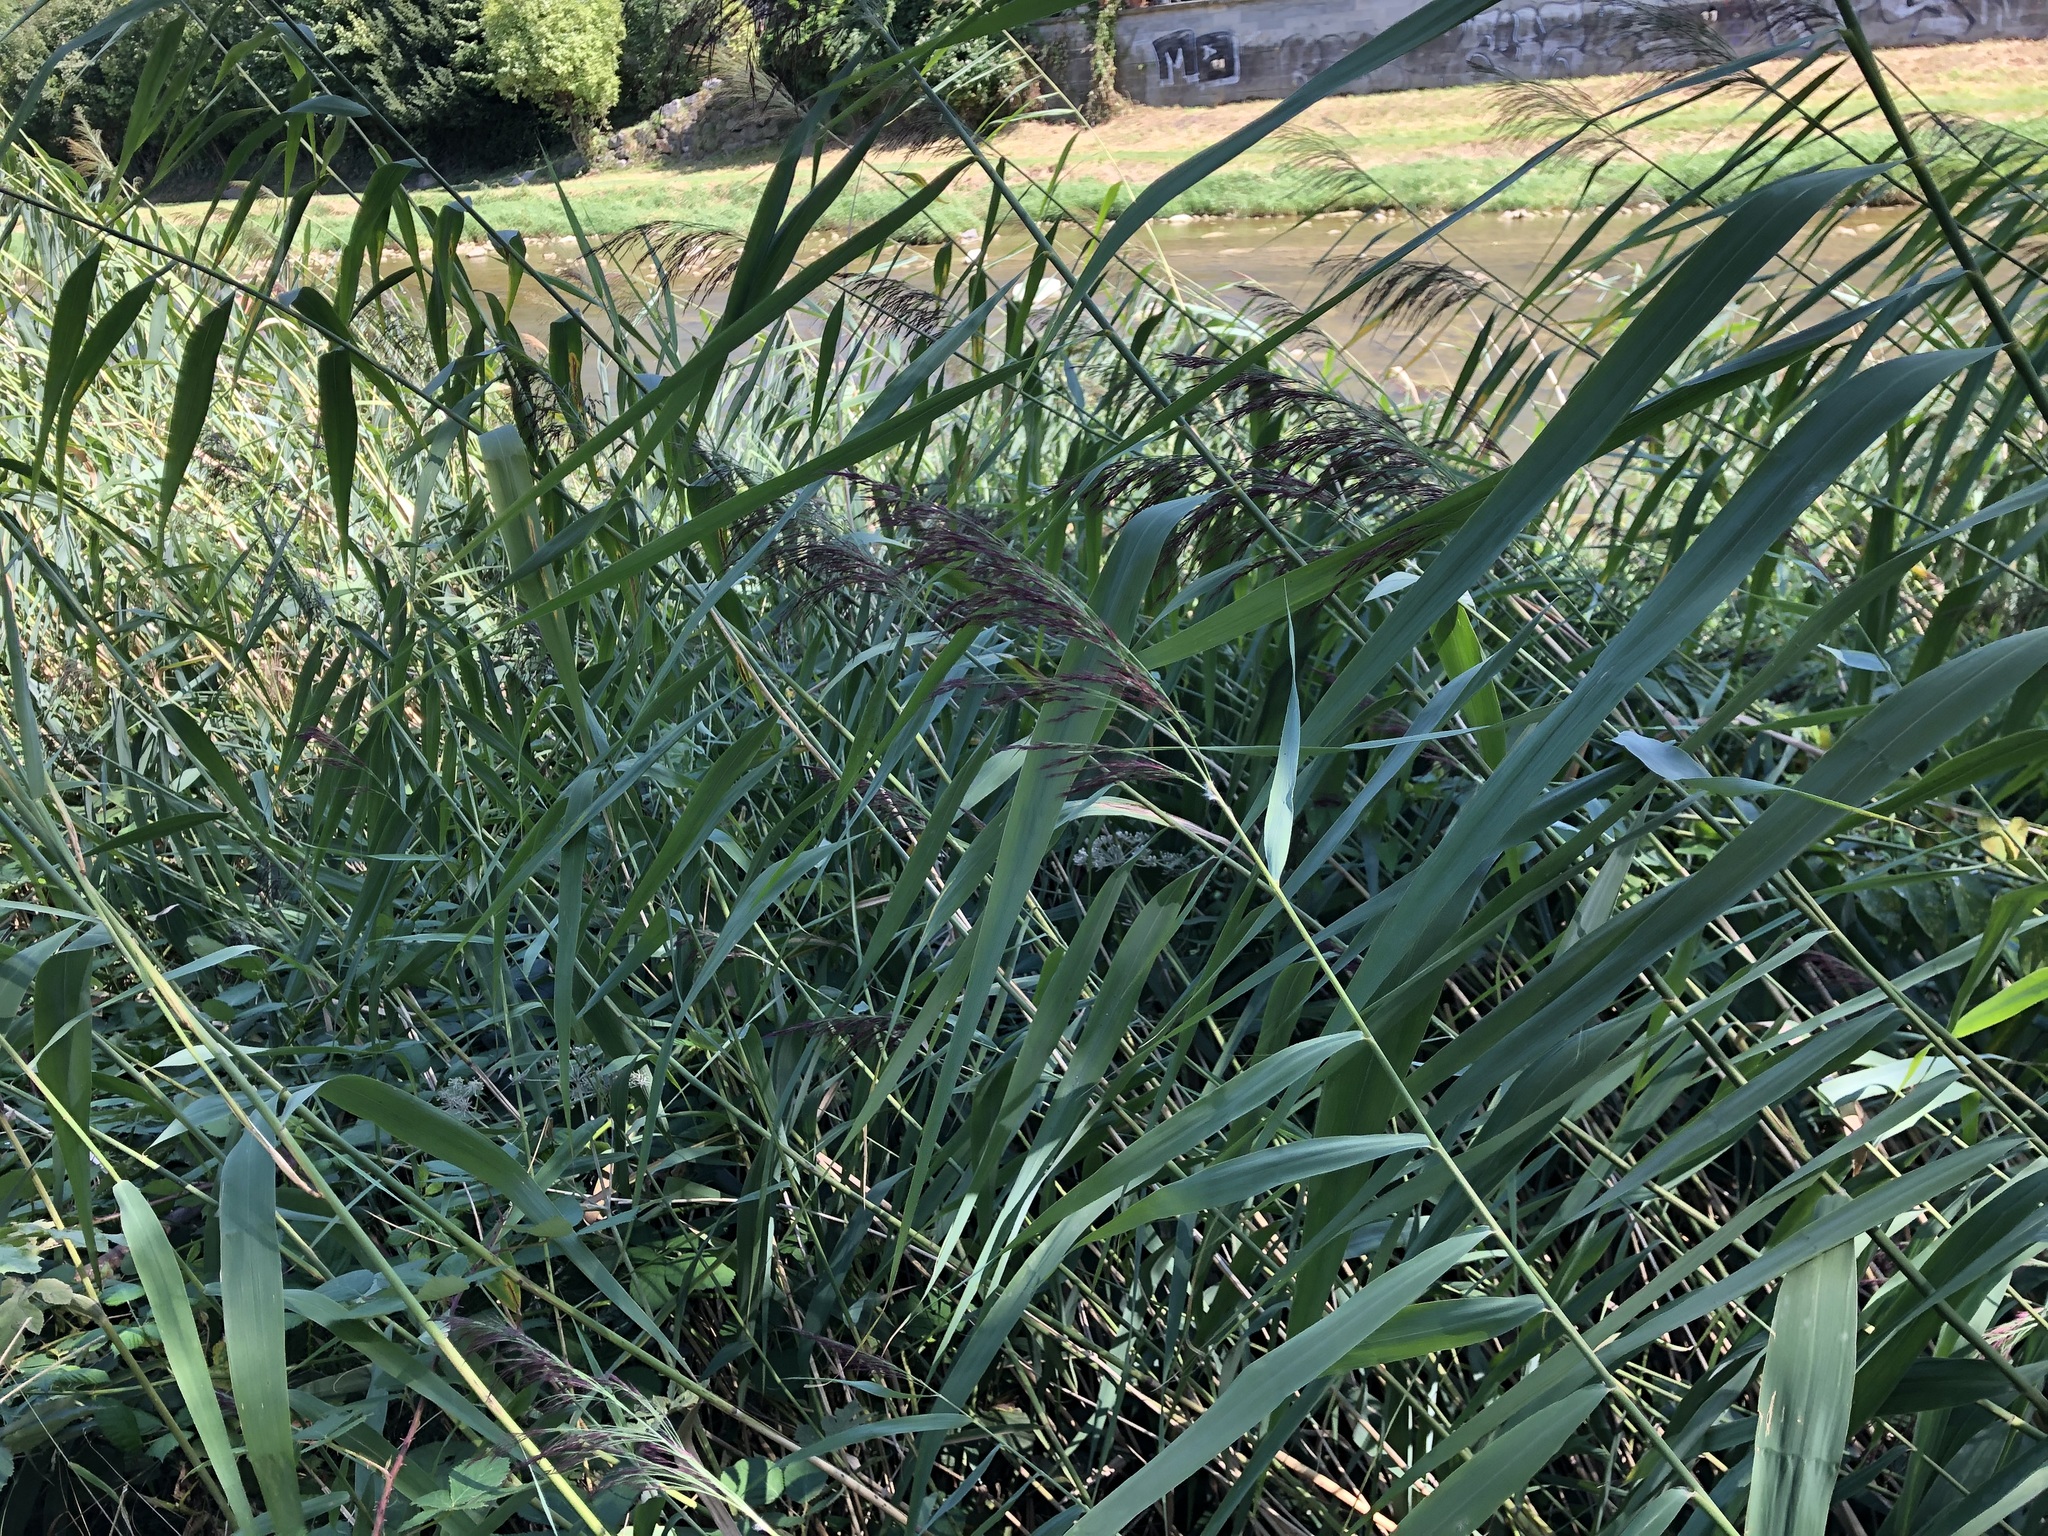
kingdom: Plantae
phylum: Tracheophyta
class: Liliopsida
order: Poales
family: Poaceae
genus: Phragmites
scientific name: Phragmites australis
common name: Common reed
